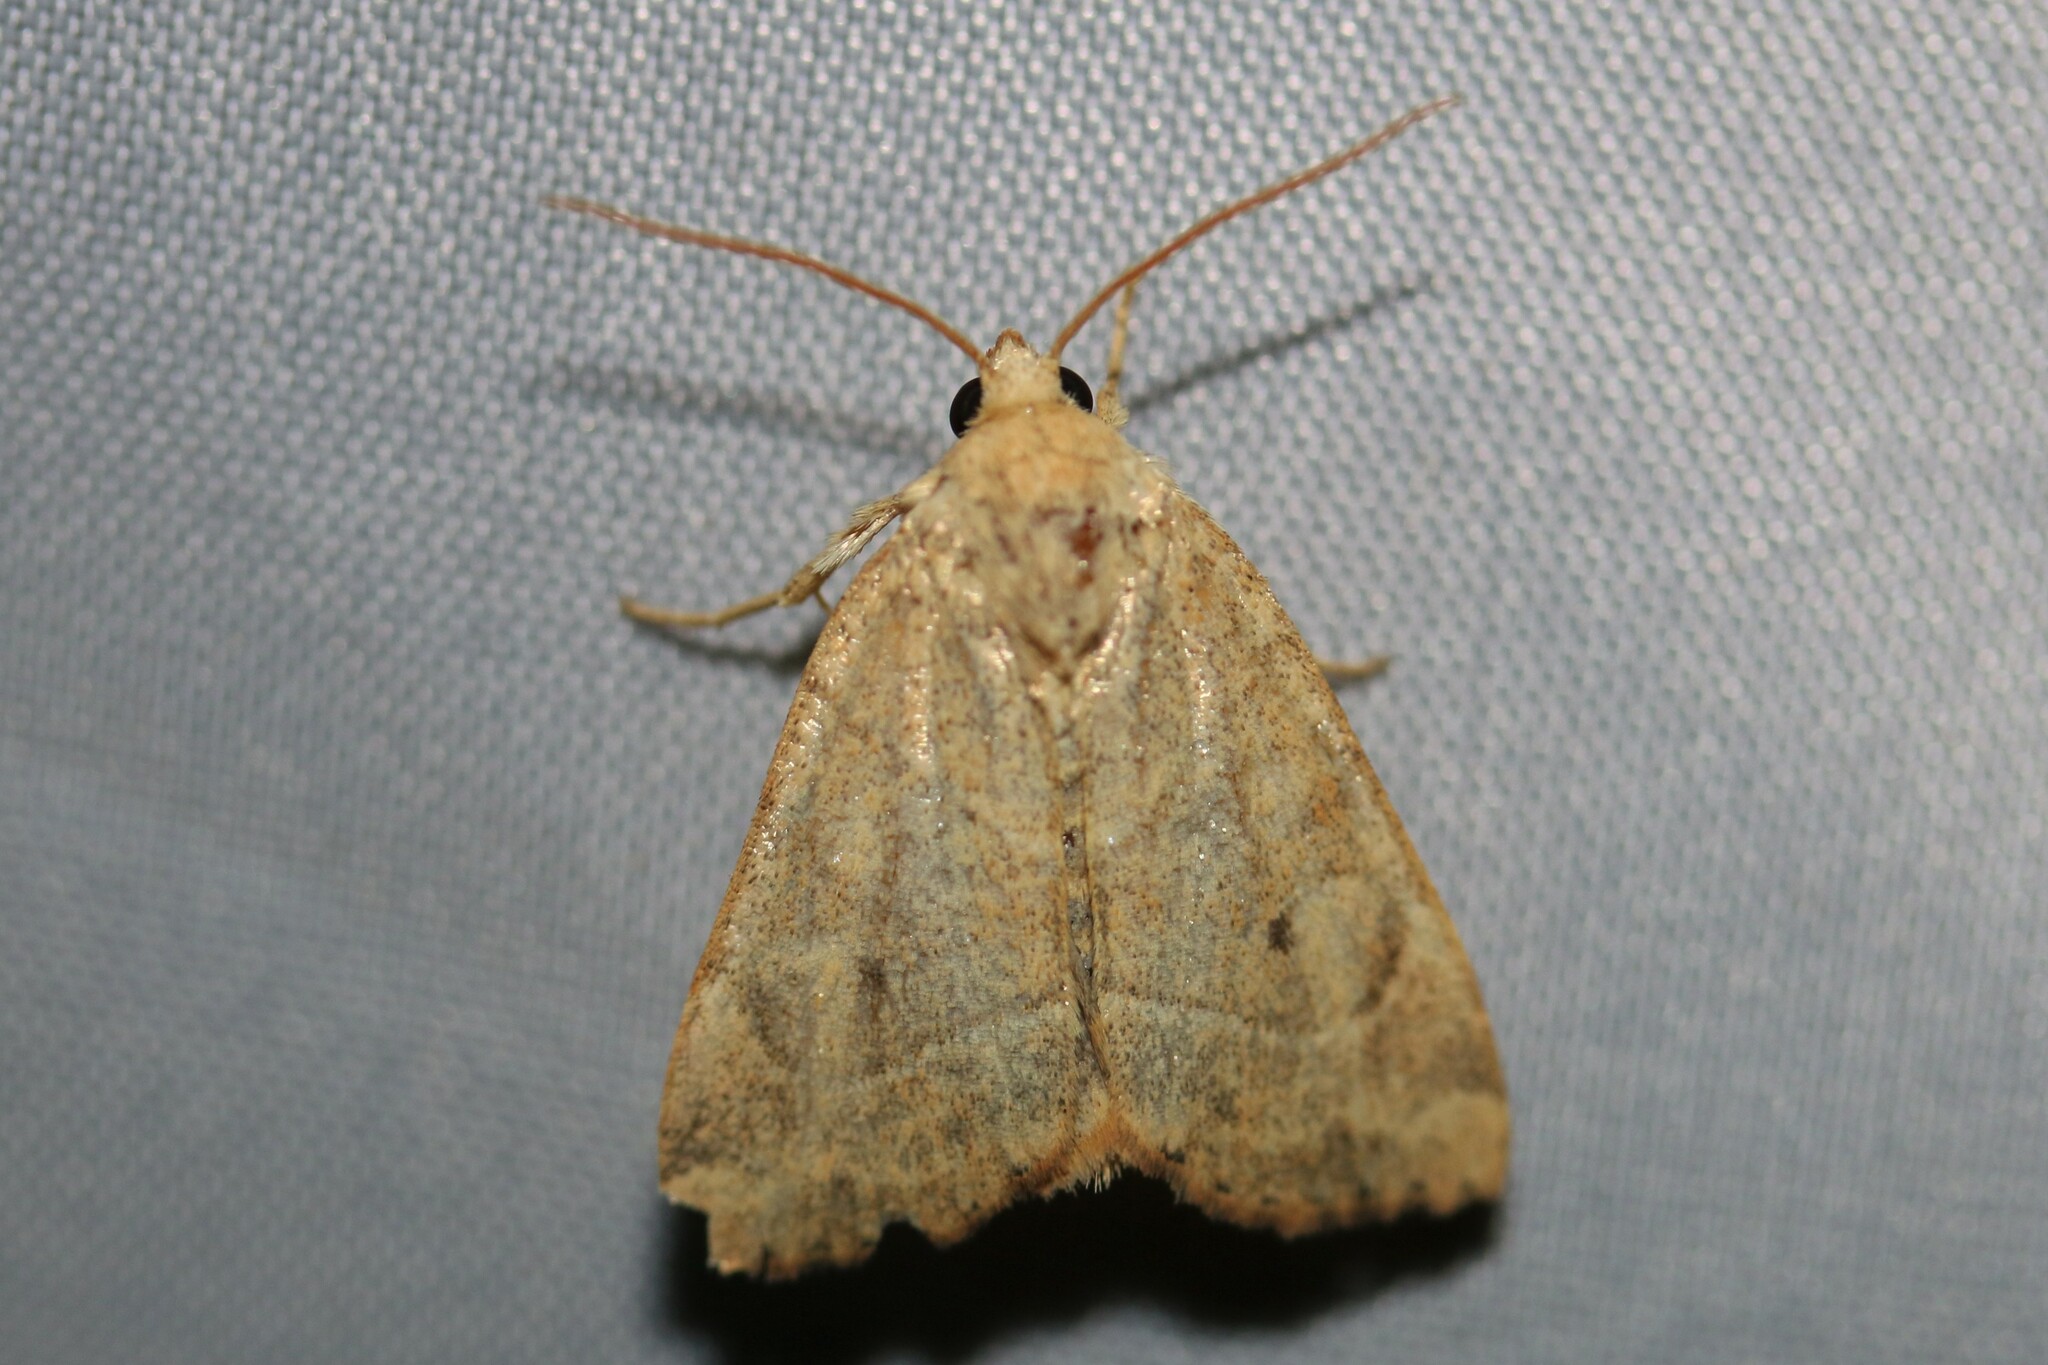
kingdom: Animalia
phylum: Arthropoda
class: Insecta
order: Lepidoptera
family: Noctuidae
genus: Cosmia
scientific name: Cosmia trapezina
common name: Dun-bar
